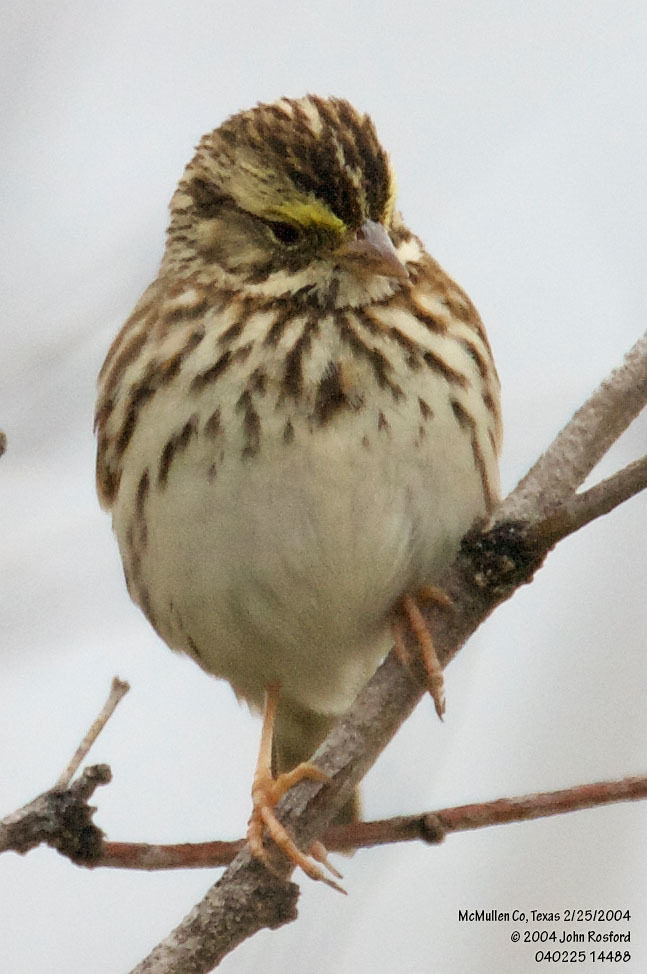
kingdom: Animalia
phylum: Chordata
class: Aves
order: Passeriformes
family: Passerellidae
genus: Passerculus
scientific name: Passerculus sandwichensis
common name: Savannah sparrow
